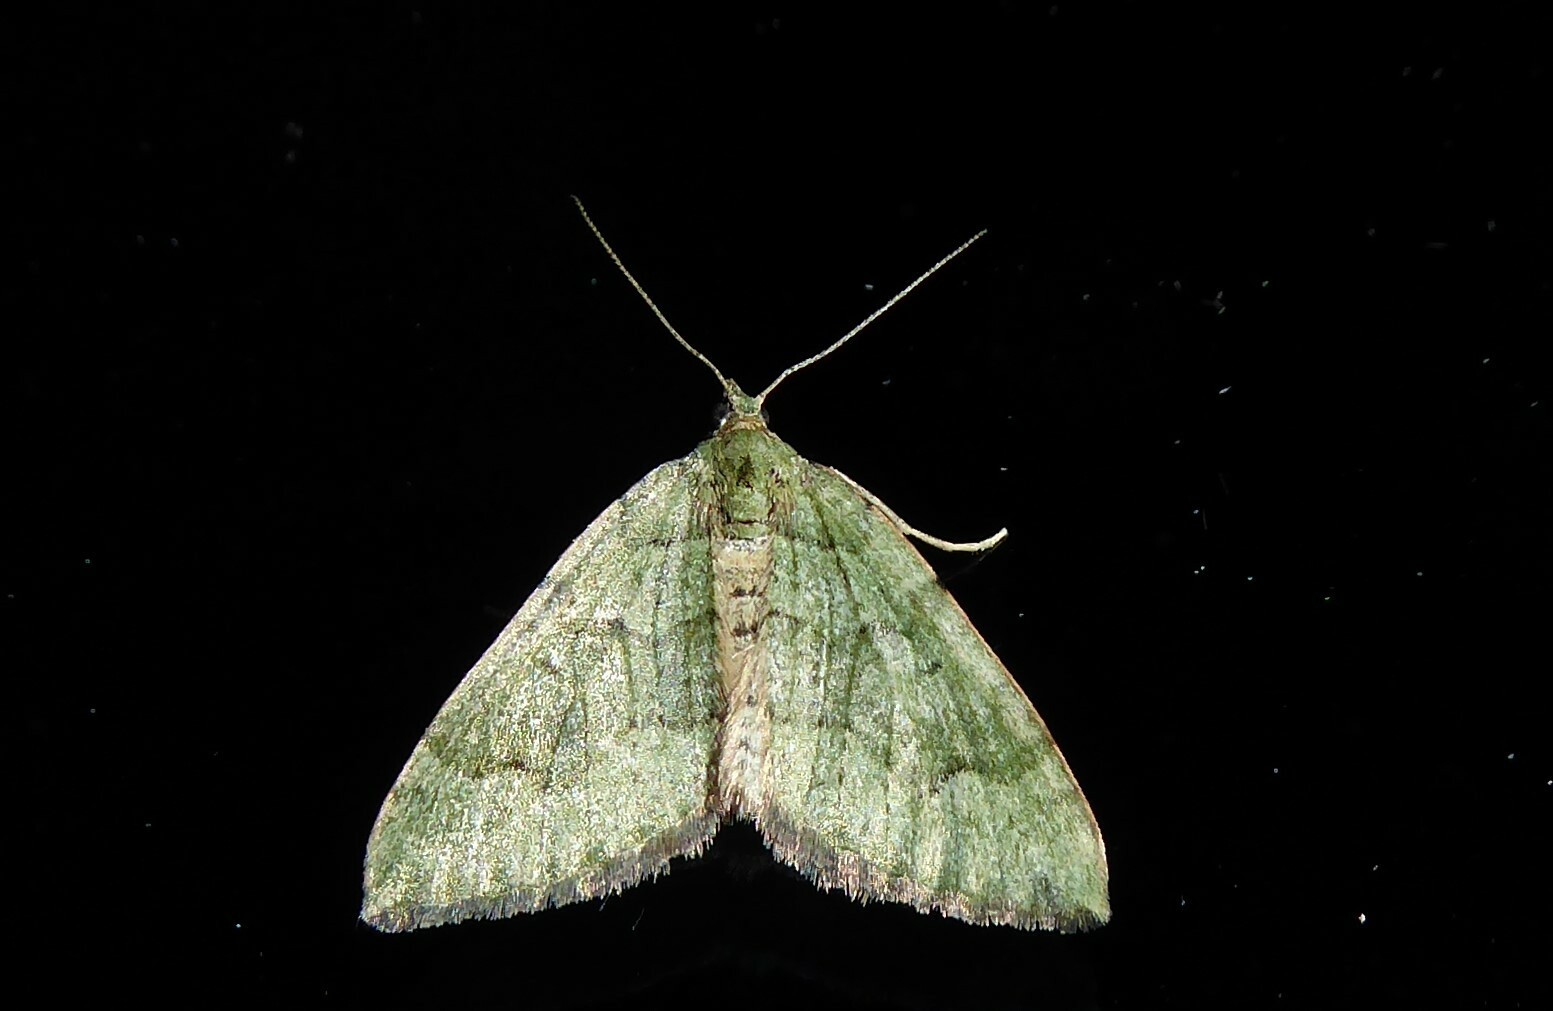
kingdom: Animalia
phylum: Arthropoda
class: Insecta
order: Lepidoptera
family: Geometridae
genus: Epyaxa
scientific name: Epyaxa rosearia
